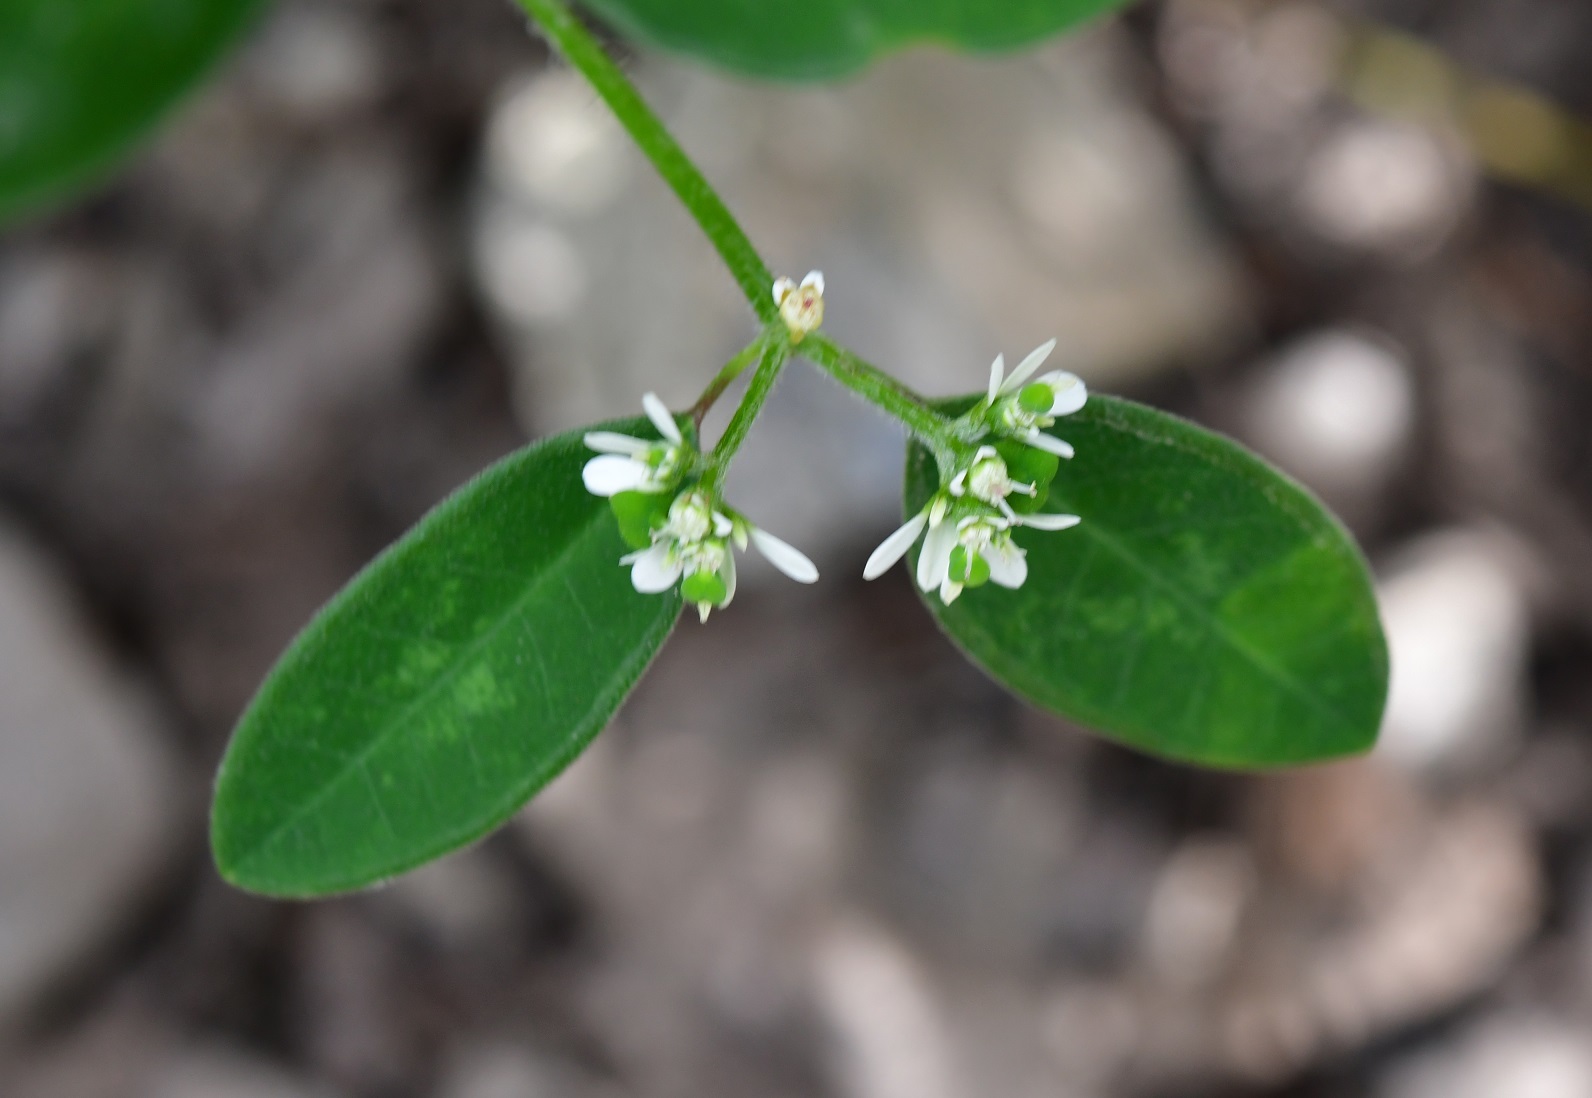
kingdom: Plantae
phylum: Tracheophyta
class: Magnoliopsida
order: Malpighiales
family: Euphorbiaceae
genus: Euphorbia
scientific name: Euphorbia graminea
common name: Grassleaf spurge
